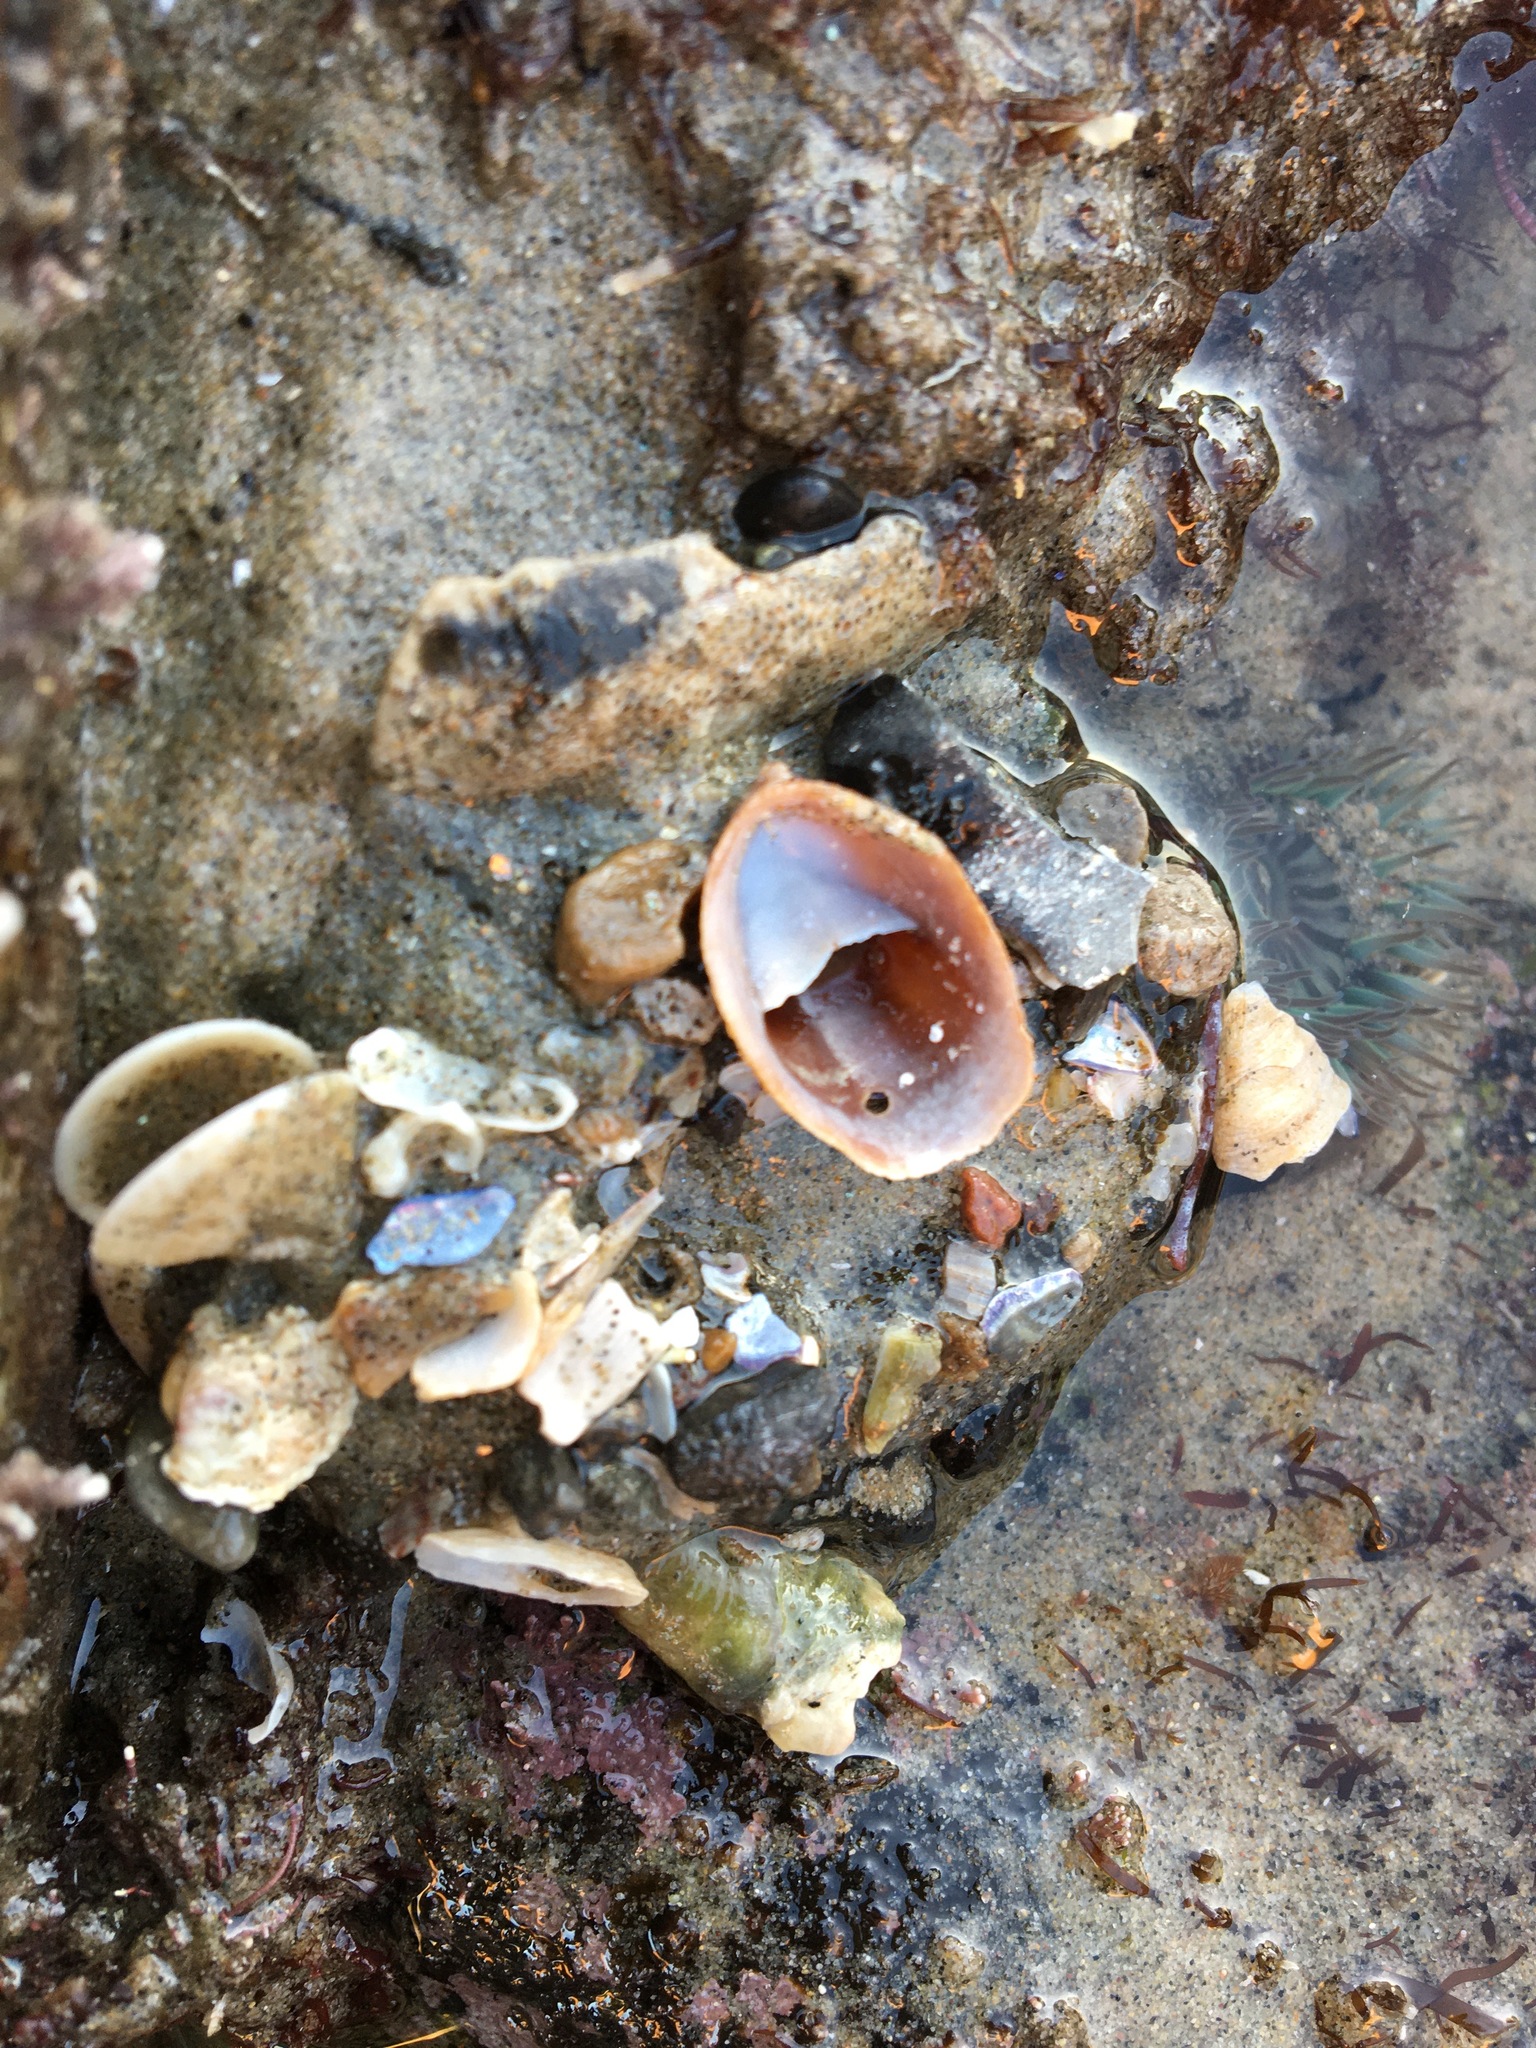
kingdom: Animalia
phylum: Mollusca
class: Gastropoda
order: Littorinimorpha
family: Calyptraeidae
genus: Crepidula
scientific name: Crepidula onyx
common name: Onyx slippersnail
